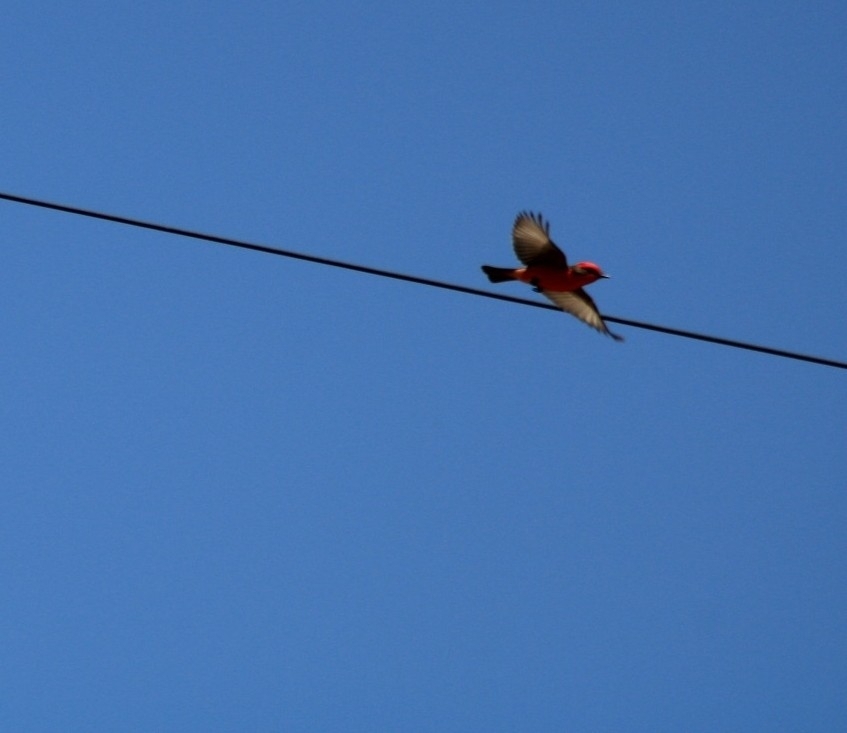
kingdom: Animalia
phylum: Chordata
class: Aves
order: Passeriformes
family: Tyrannidae
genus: Pyrocephalus
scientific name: Pyrocephalus rubinus
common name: Vermilion flycatcher
